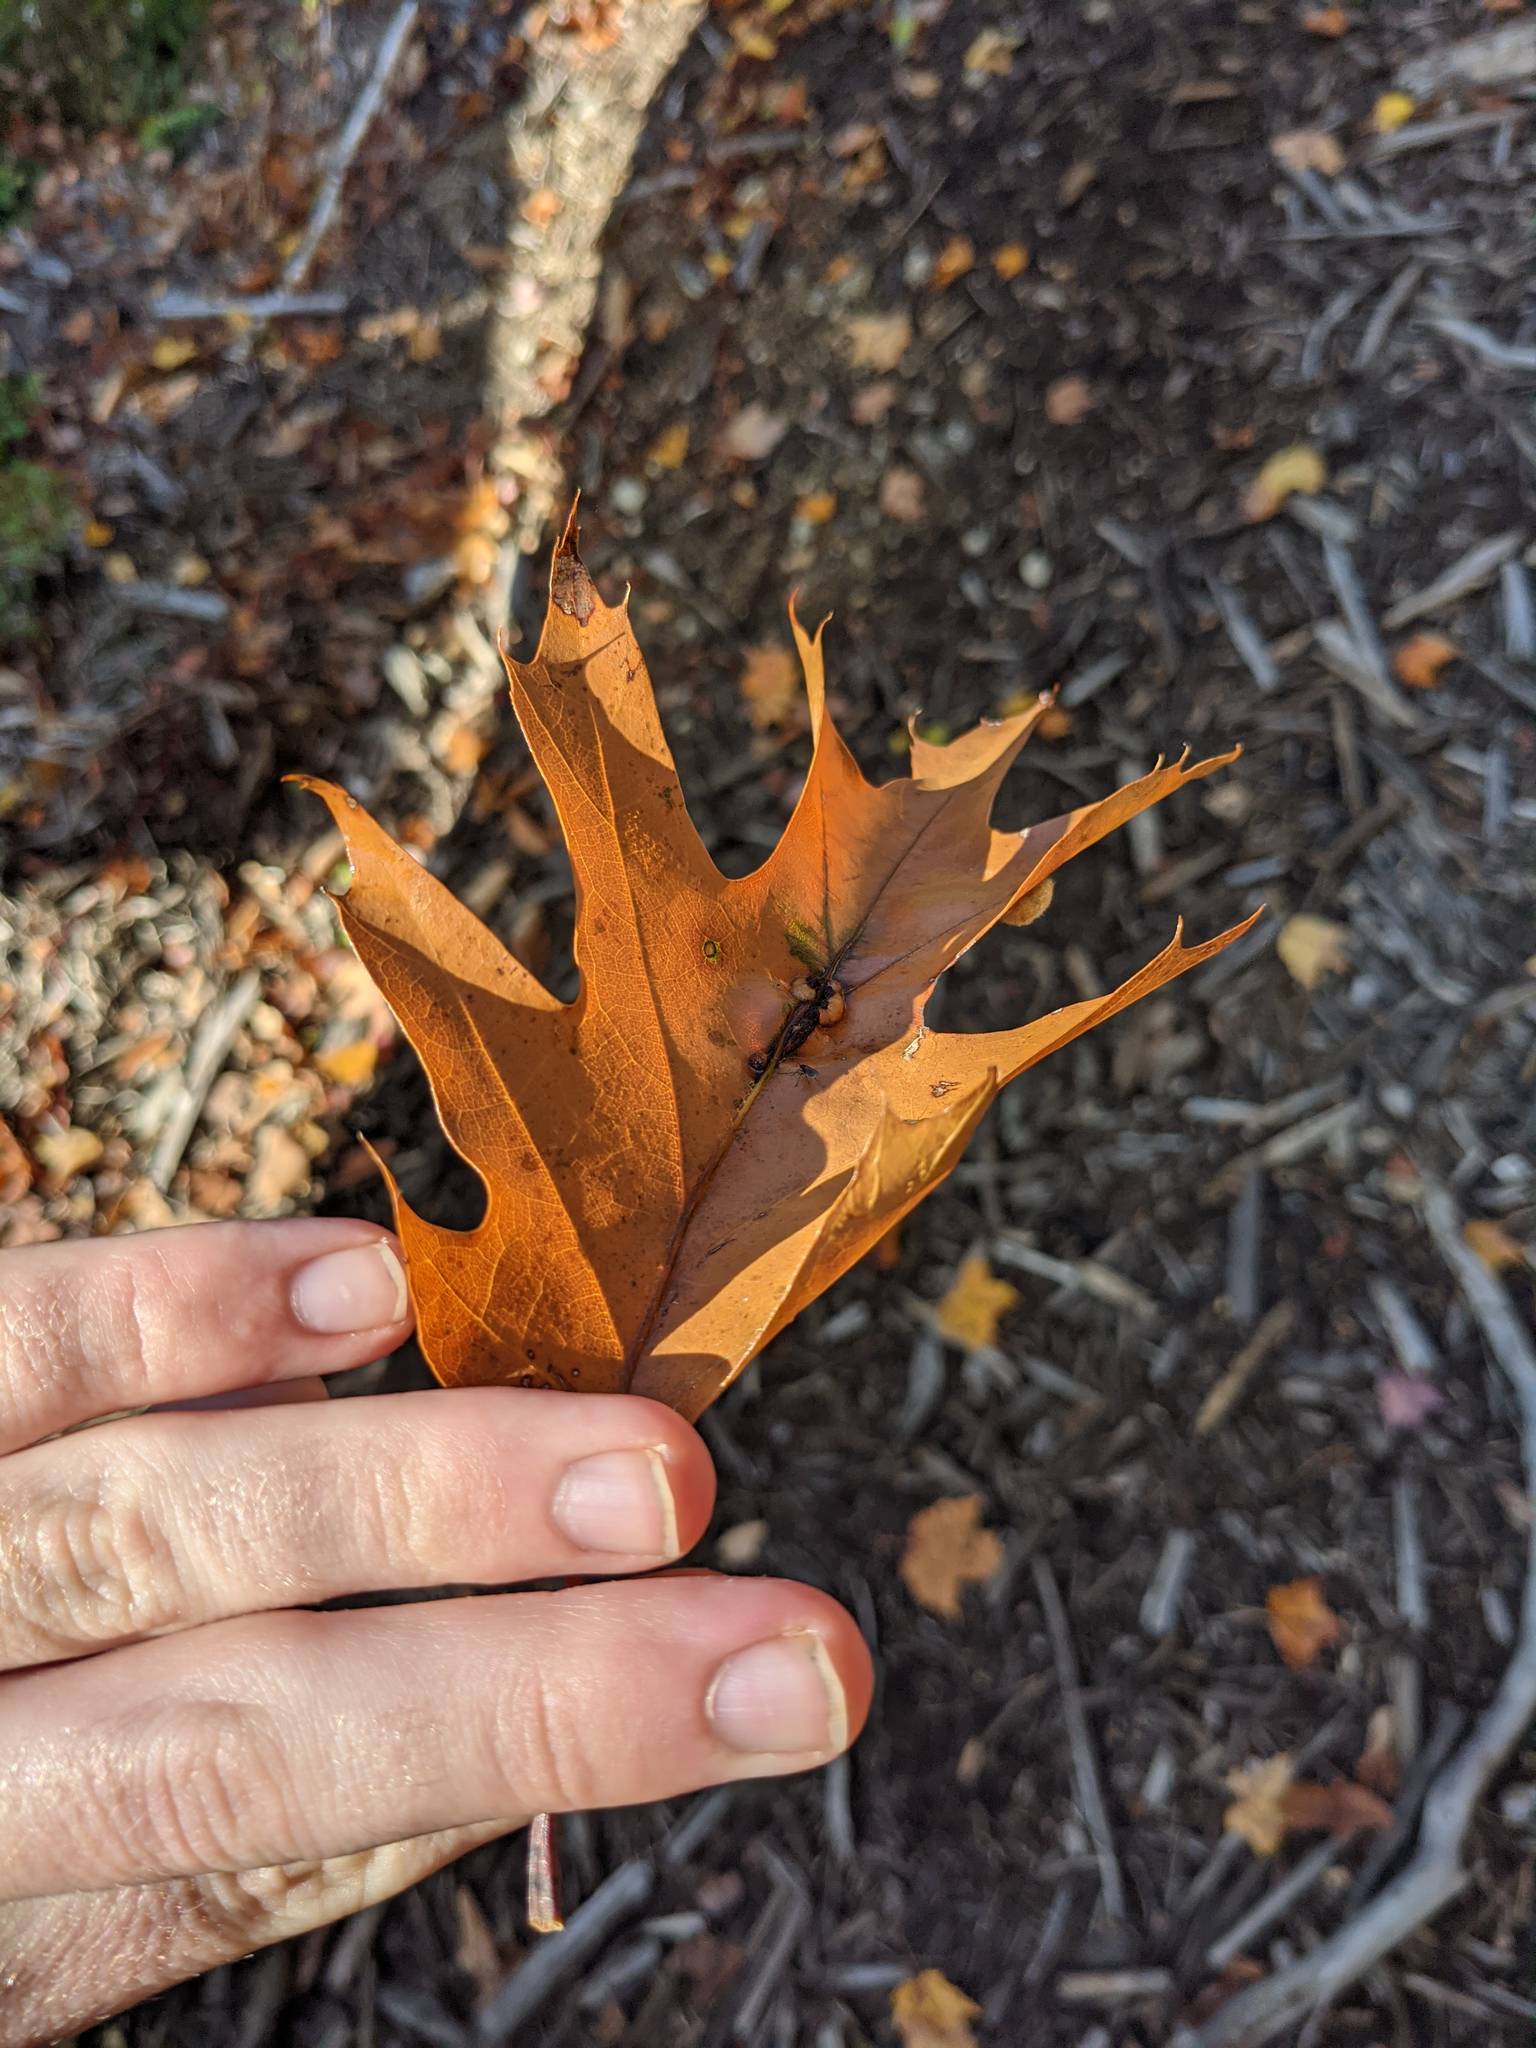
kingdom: Animalia
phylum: Arthropoda
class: Insecta
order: Hymenoptera
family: Cynipidae
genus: Callirhytis
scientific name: Callirhytis
